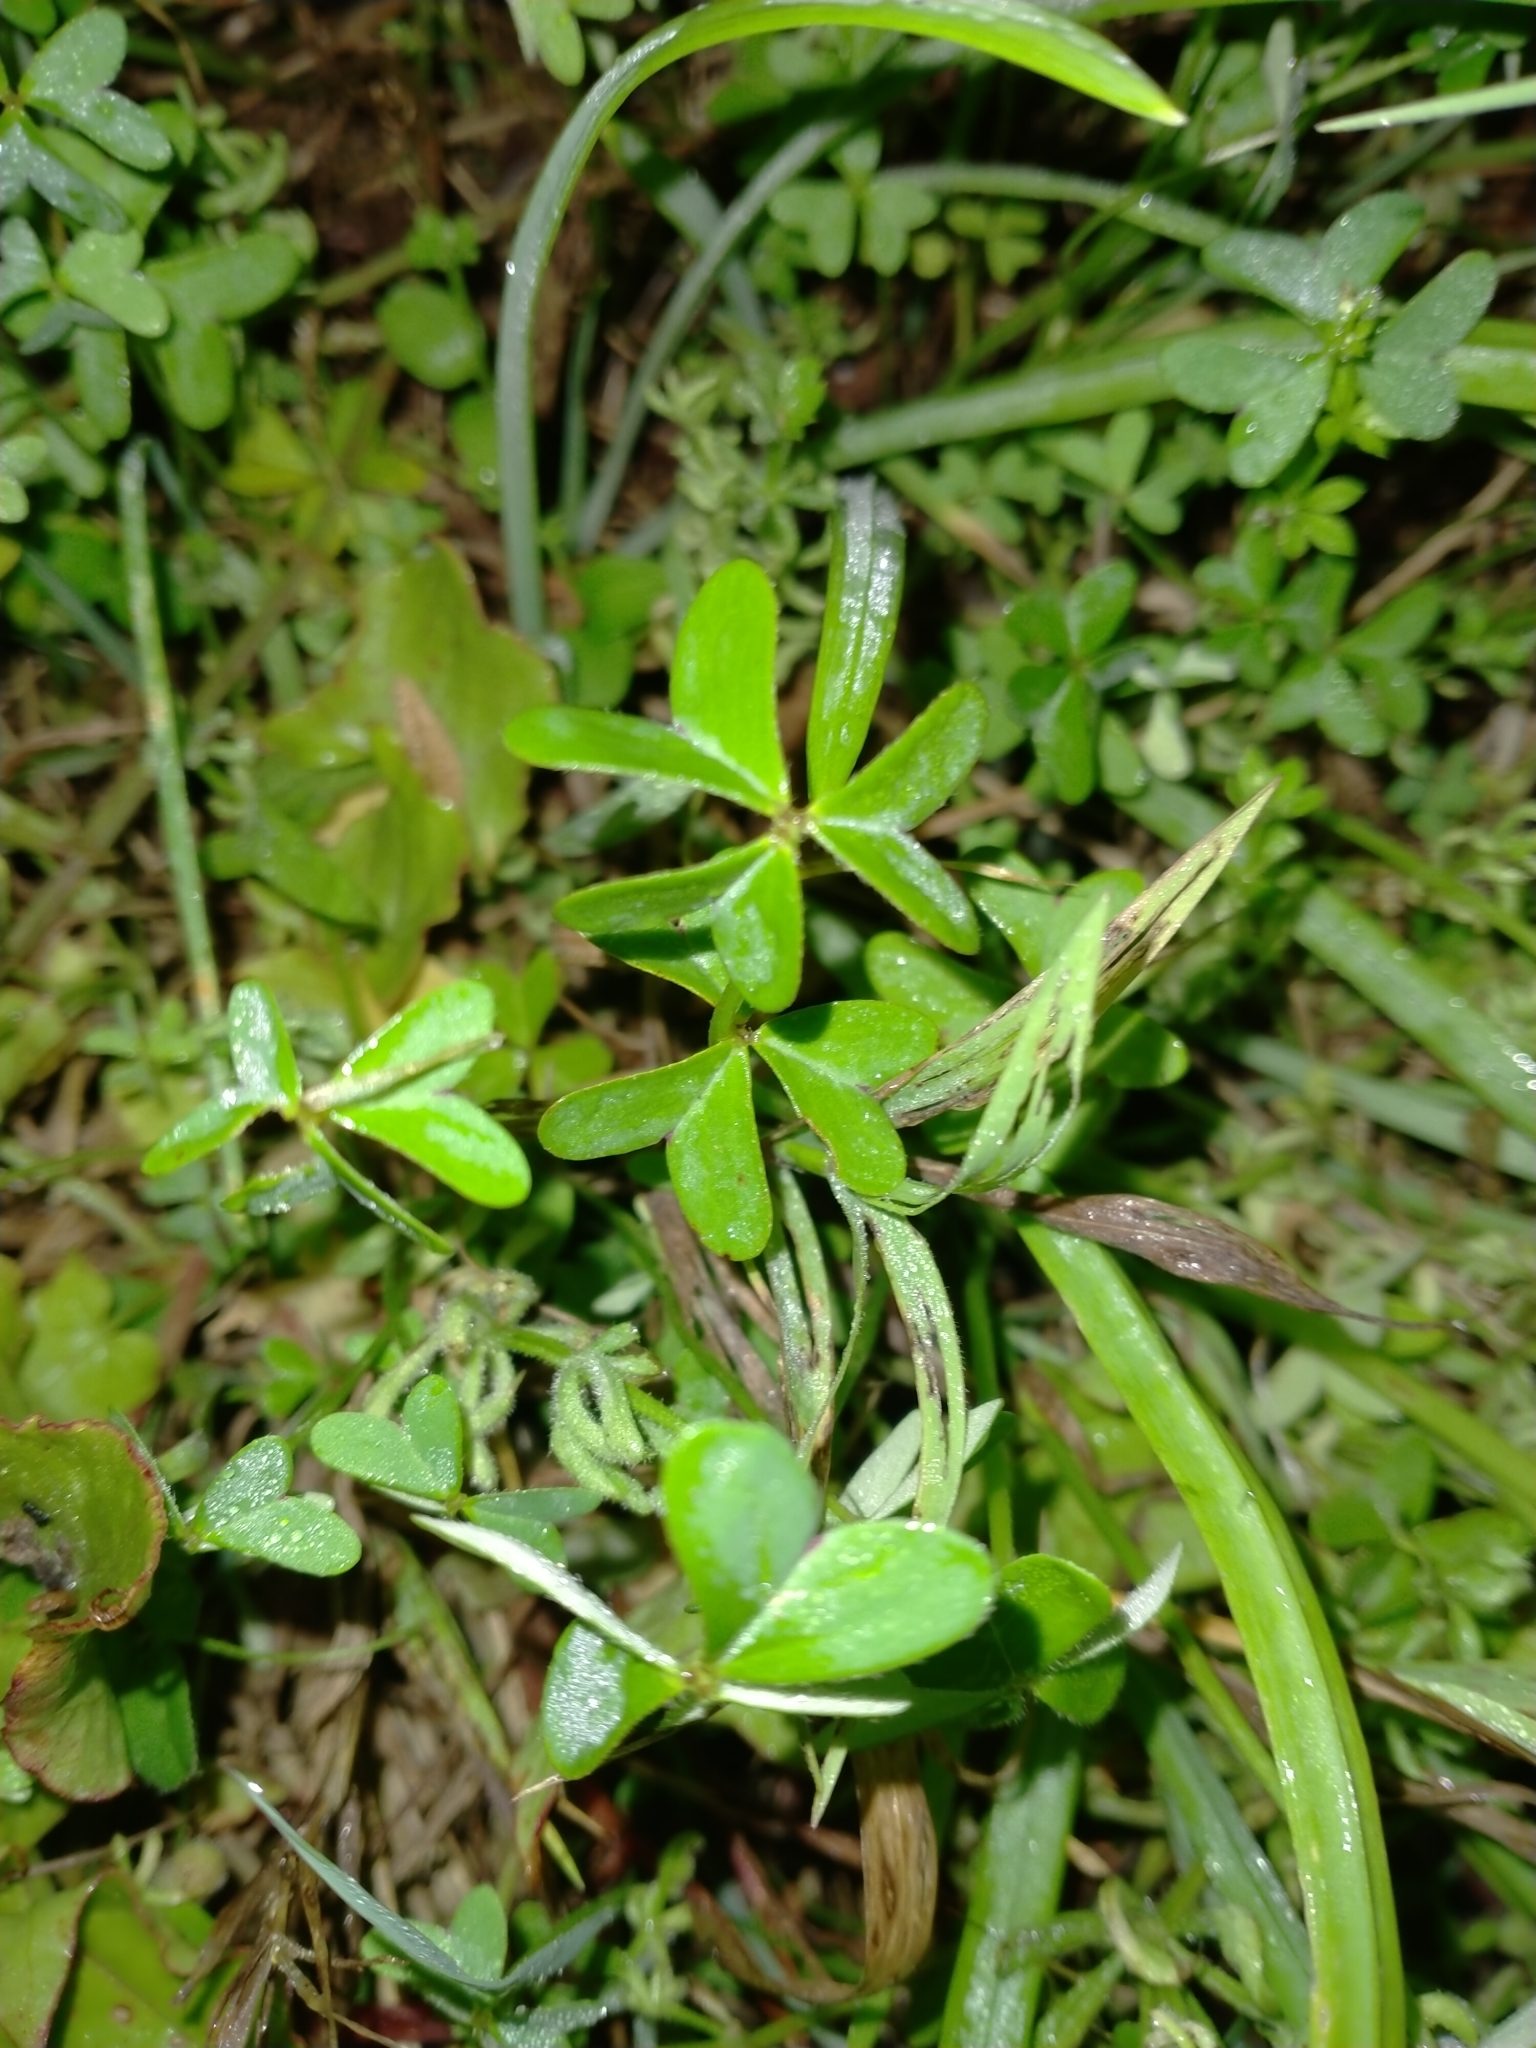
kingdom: Plantae
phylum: Tracheophyta
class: Magnoliopsida
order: Oxalidales
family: Oxalidaceae
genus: Oxalis
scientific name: Oxalis pes-caprae
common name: Bermuda-buttercup
